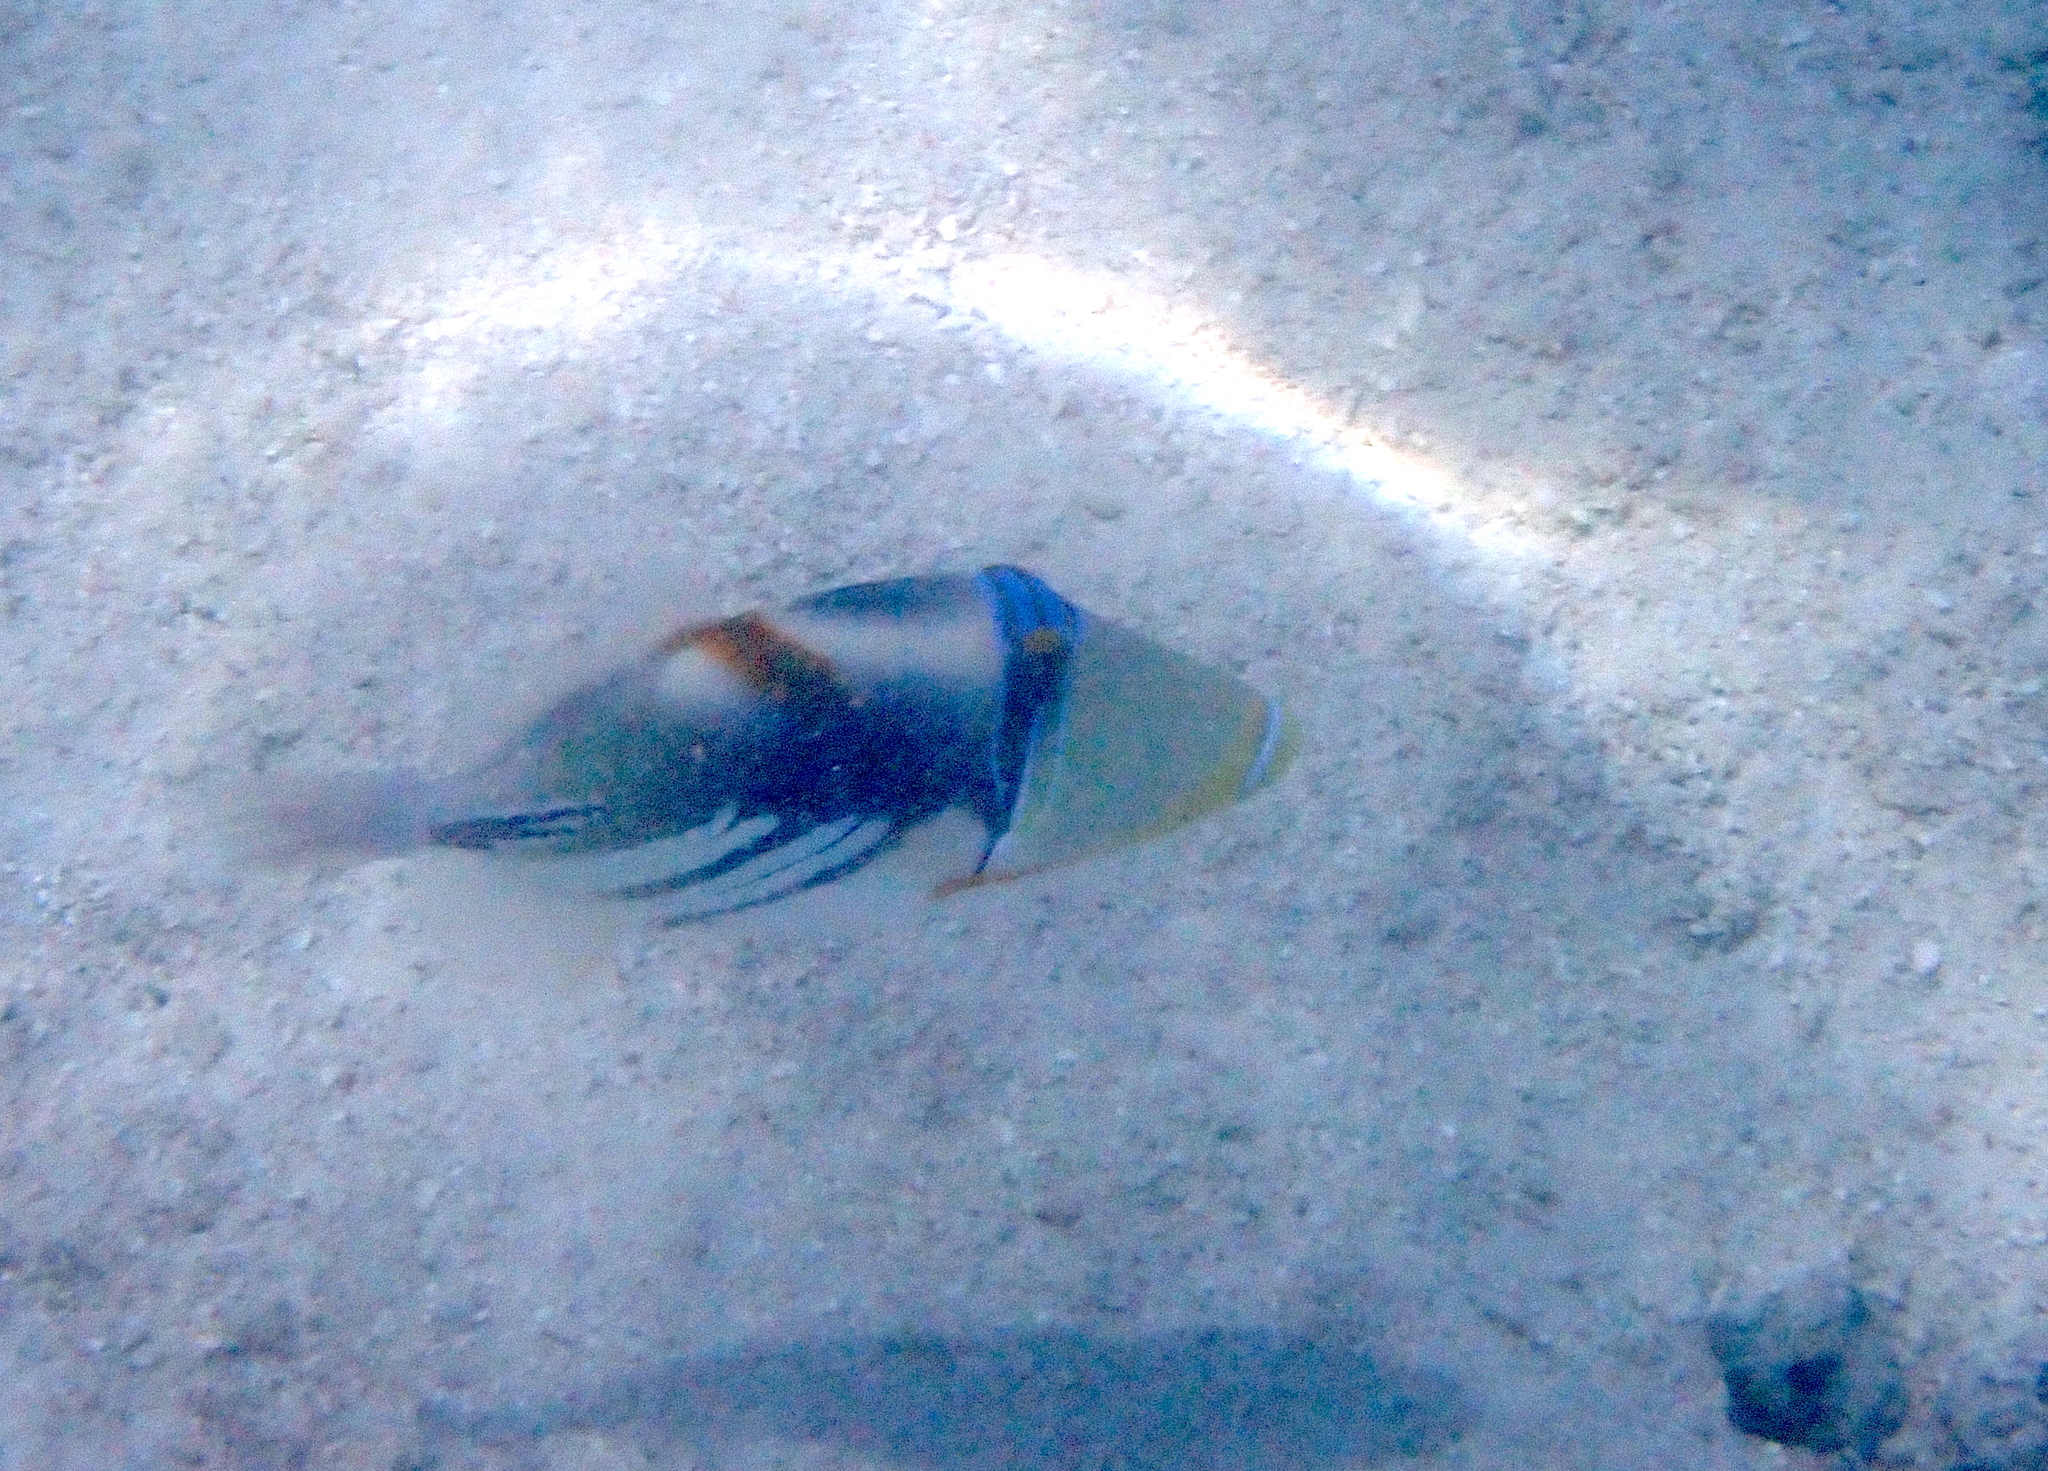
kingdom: Animalia
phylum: Chordata
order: Tetraodontiformes
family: Balistidae
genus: Rhinecanthus
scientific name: Rhinecanthus aculeatus
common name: White-banded triggerfish
